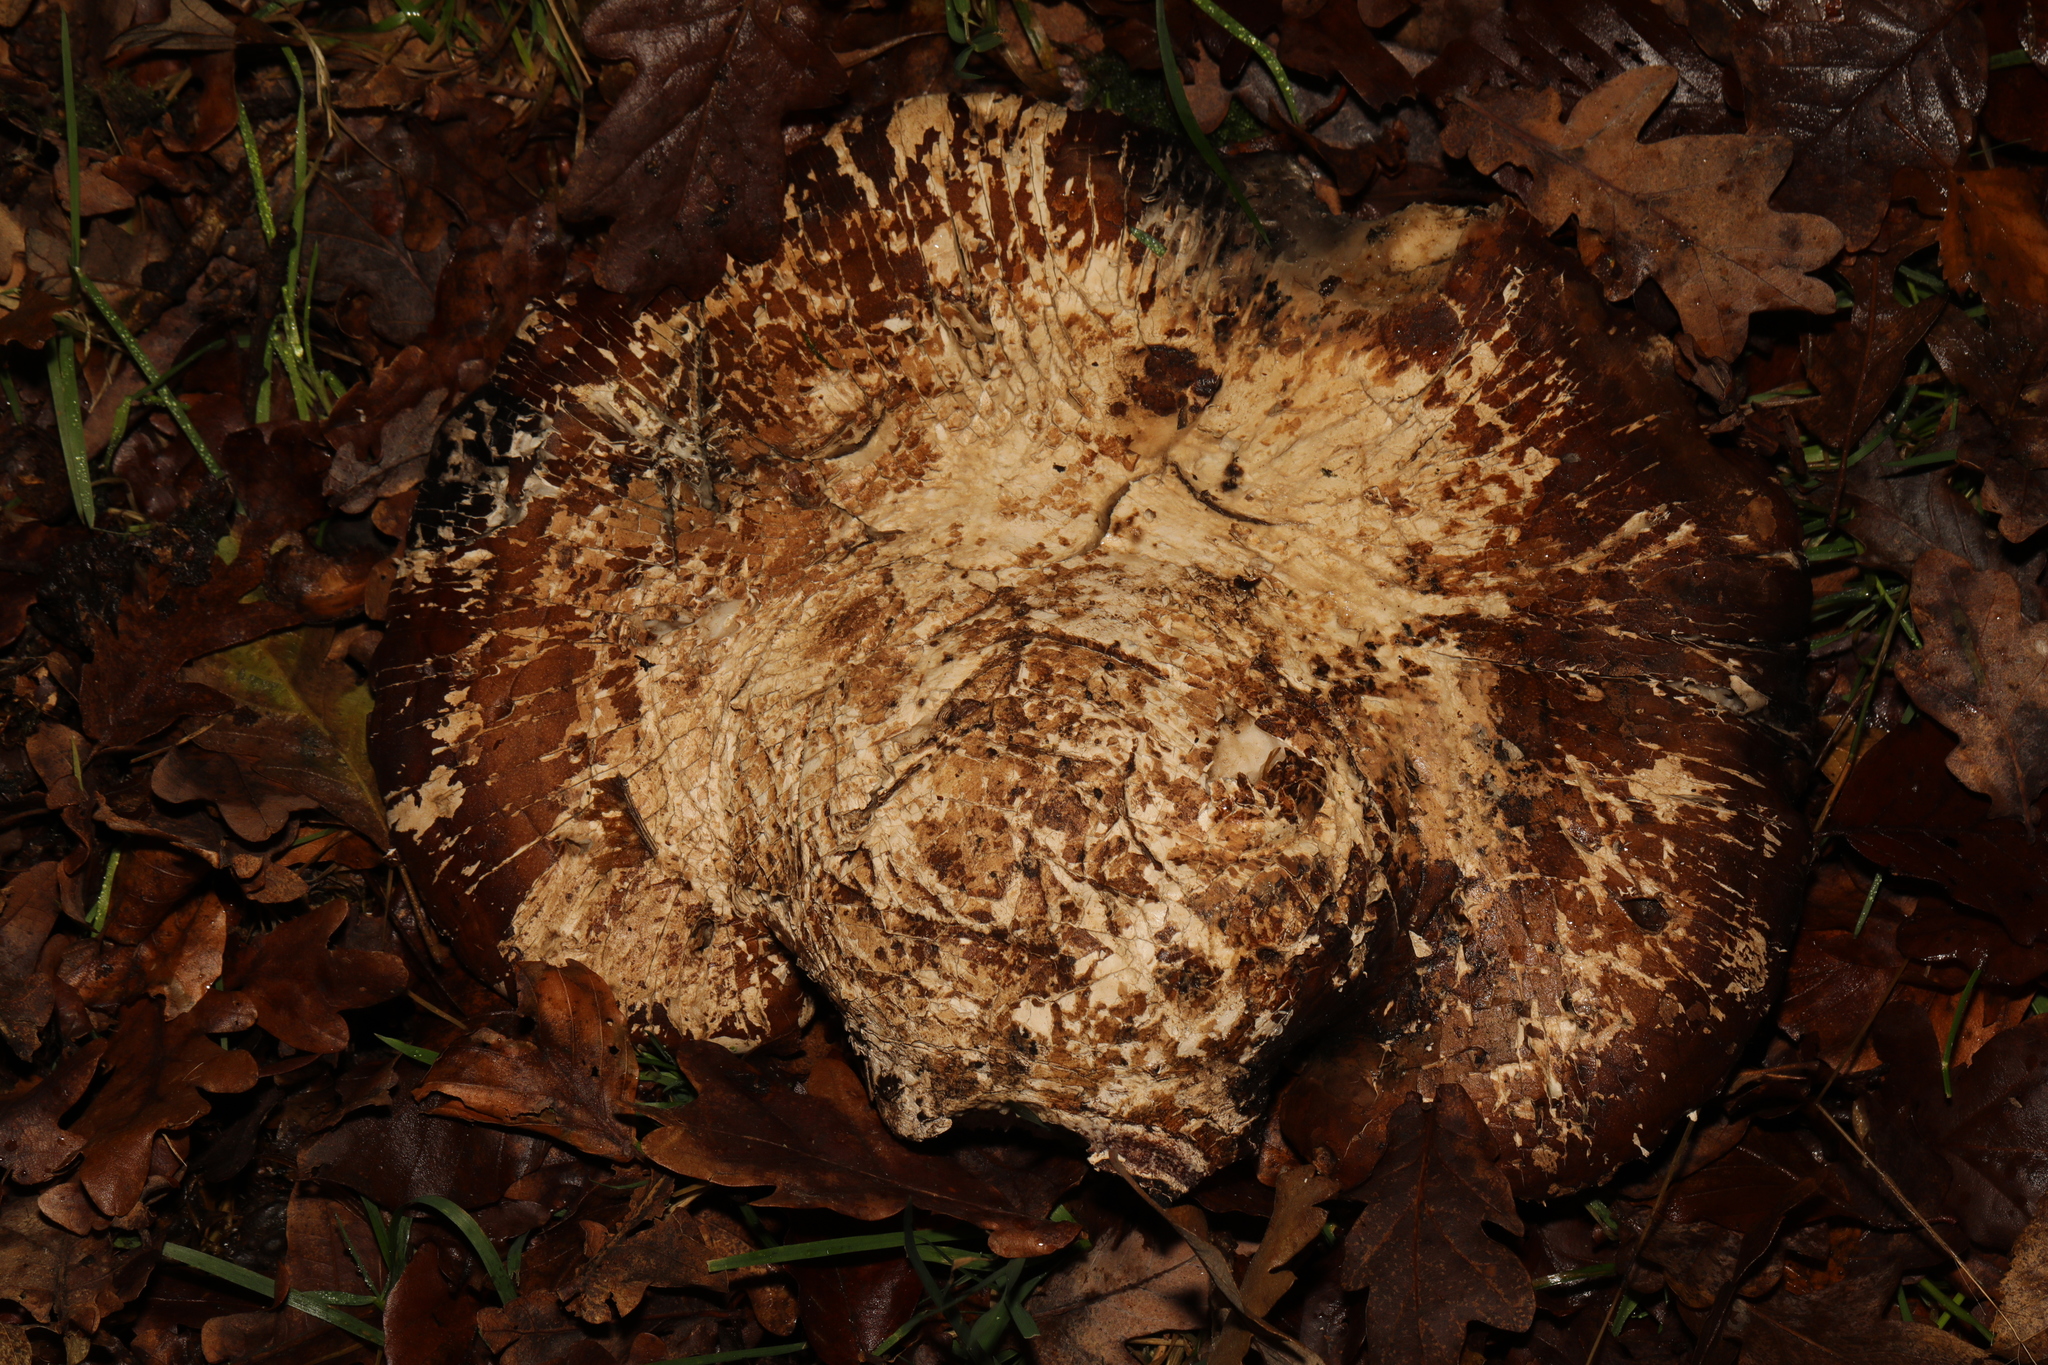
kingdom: Fungi
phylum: Basidiomycota
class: Agaricomycetes
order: Polyporales
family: Fomitopsidaceae
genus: Fomitopsis
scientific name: Fomitopsis betulina
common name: Birch polypore
